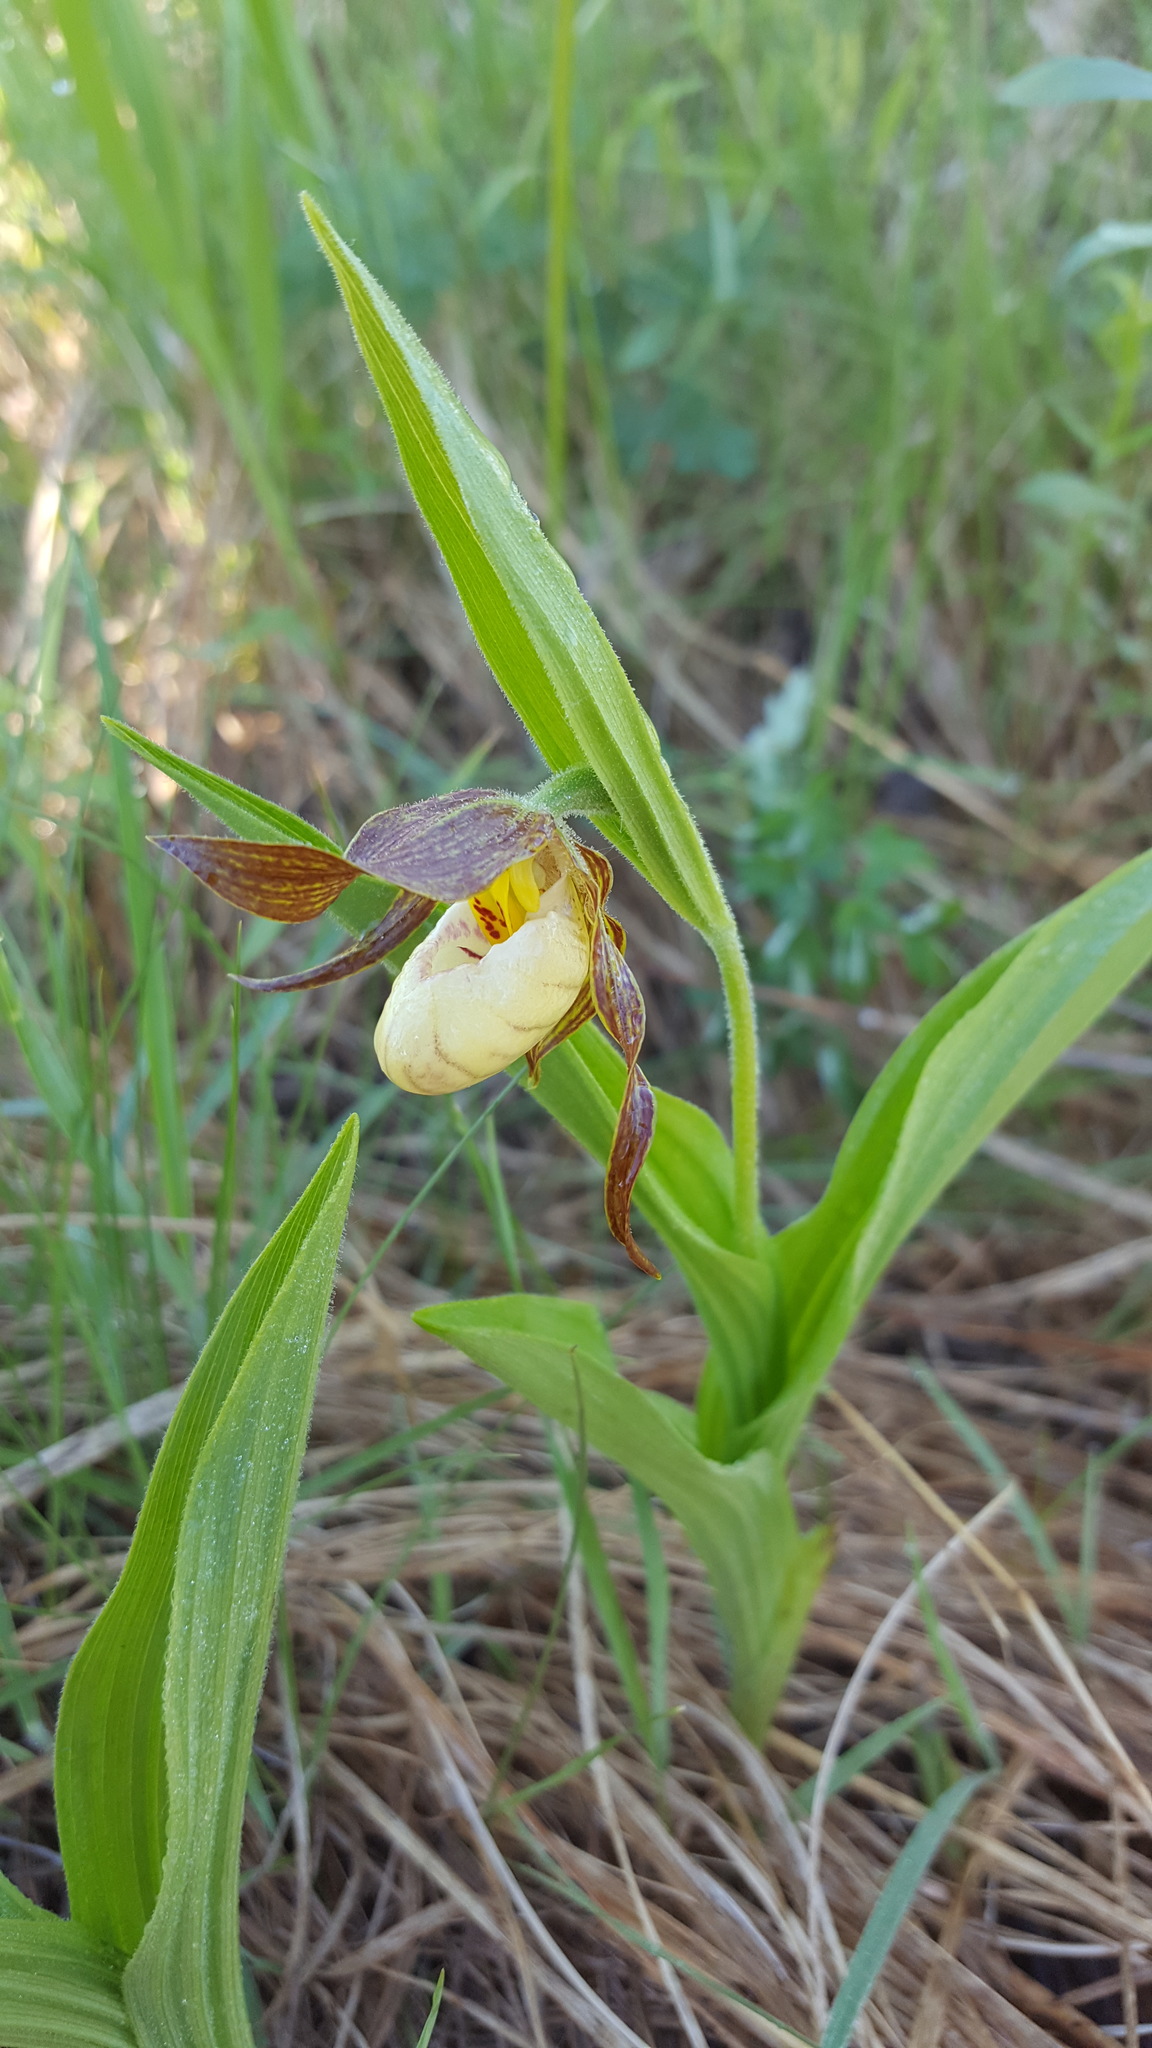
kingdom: Plantae
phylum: Tracheophyta
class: Liliopsida
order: Asparagales
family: Orchidaceae
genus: Cypripedium
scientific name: Cypripedium andrewsii
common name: Andrew's lady's-slipper
